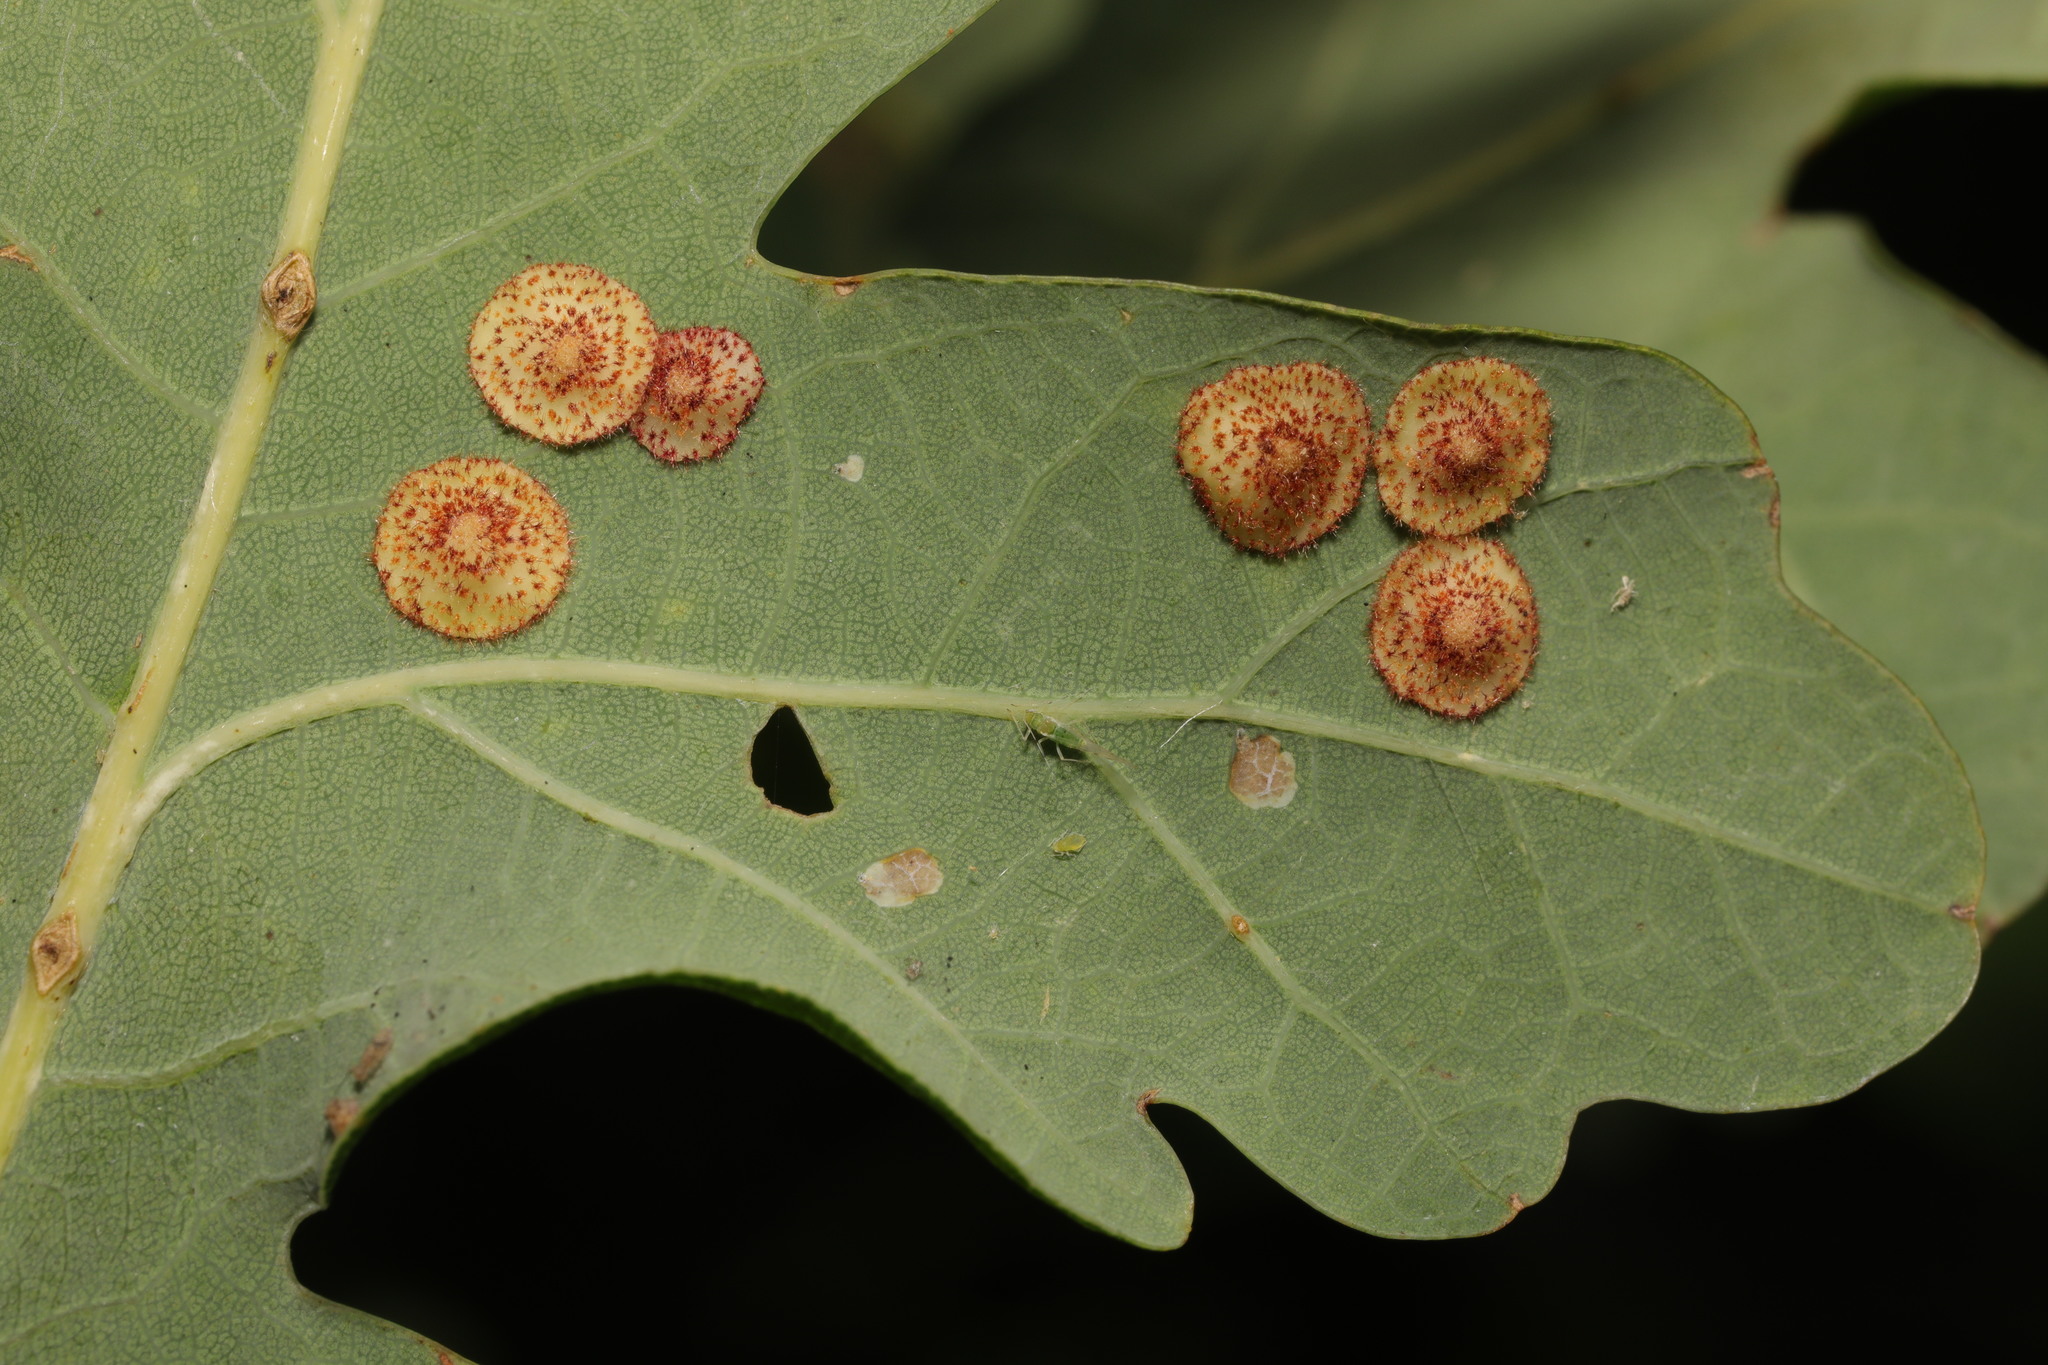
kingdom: Animalia
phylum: Arthropoda
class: Insecta
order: Hymenoptera
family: Cynipidae
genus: Neuroterus
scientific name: Neuroterus quercusbaccarum
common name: Common spangle gall
